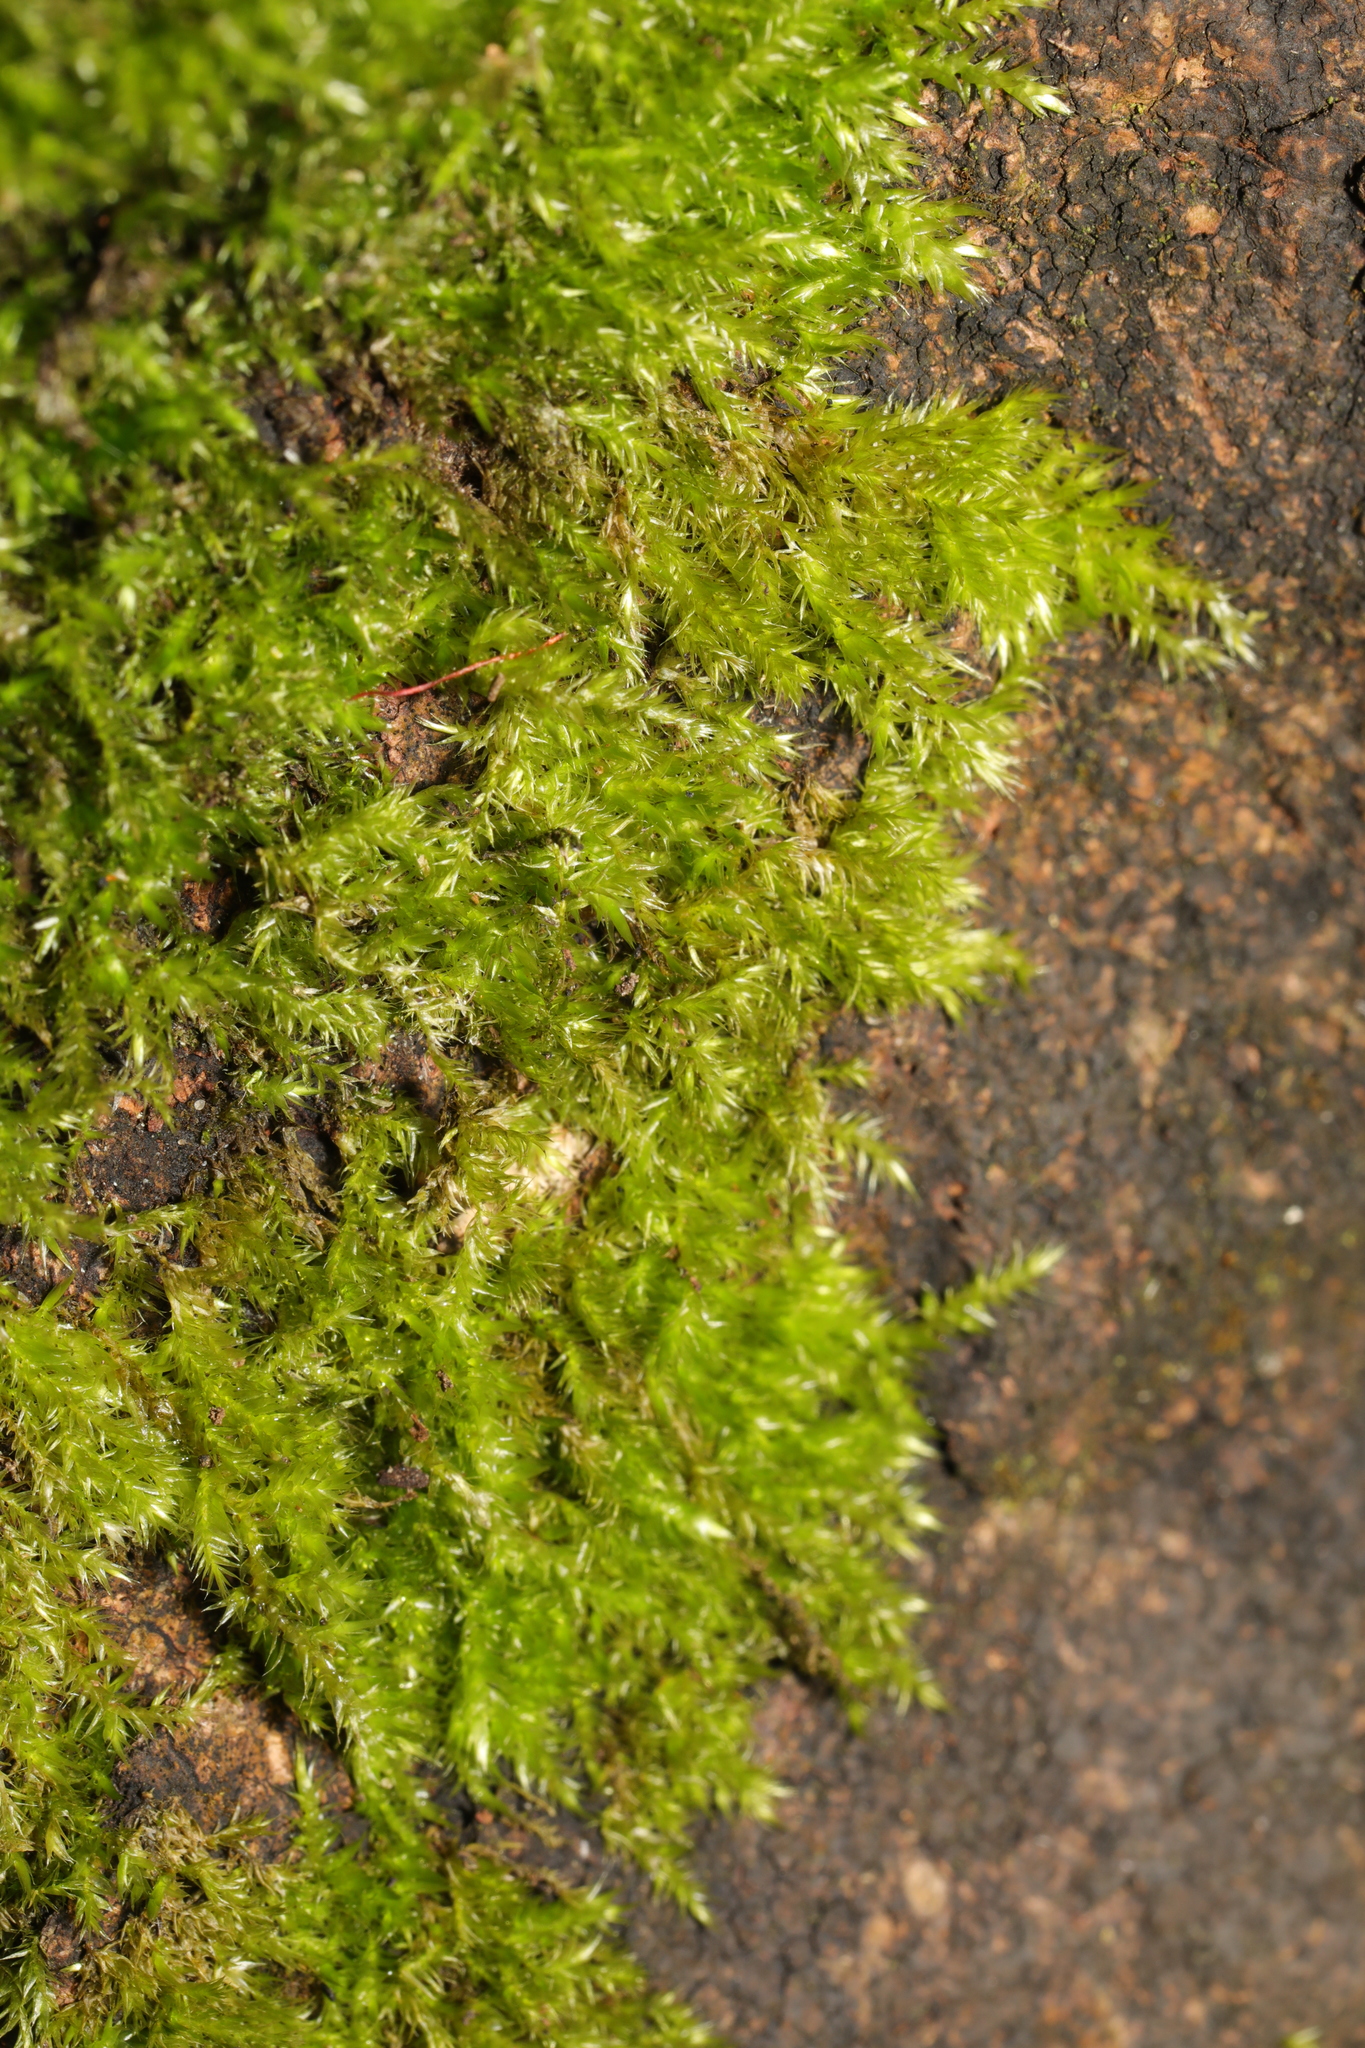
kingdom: Plantae
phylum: Bryophyta
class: Bryopsida
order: Hypnales
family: Brachytheciaceae
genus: Rhynchostegiella
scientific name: Rhynchostegiella tenella
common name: Tender feather-moss
